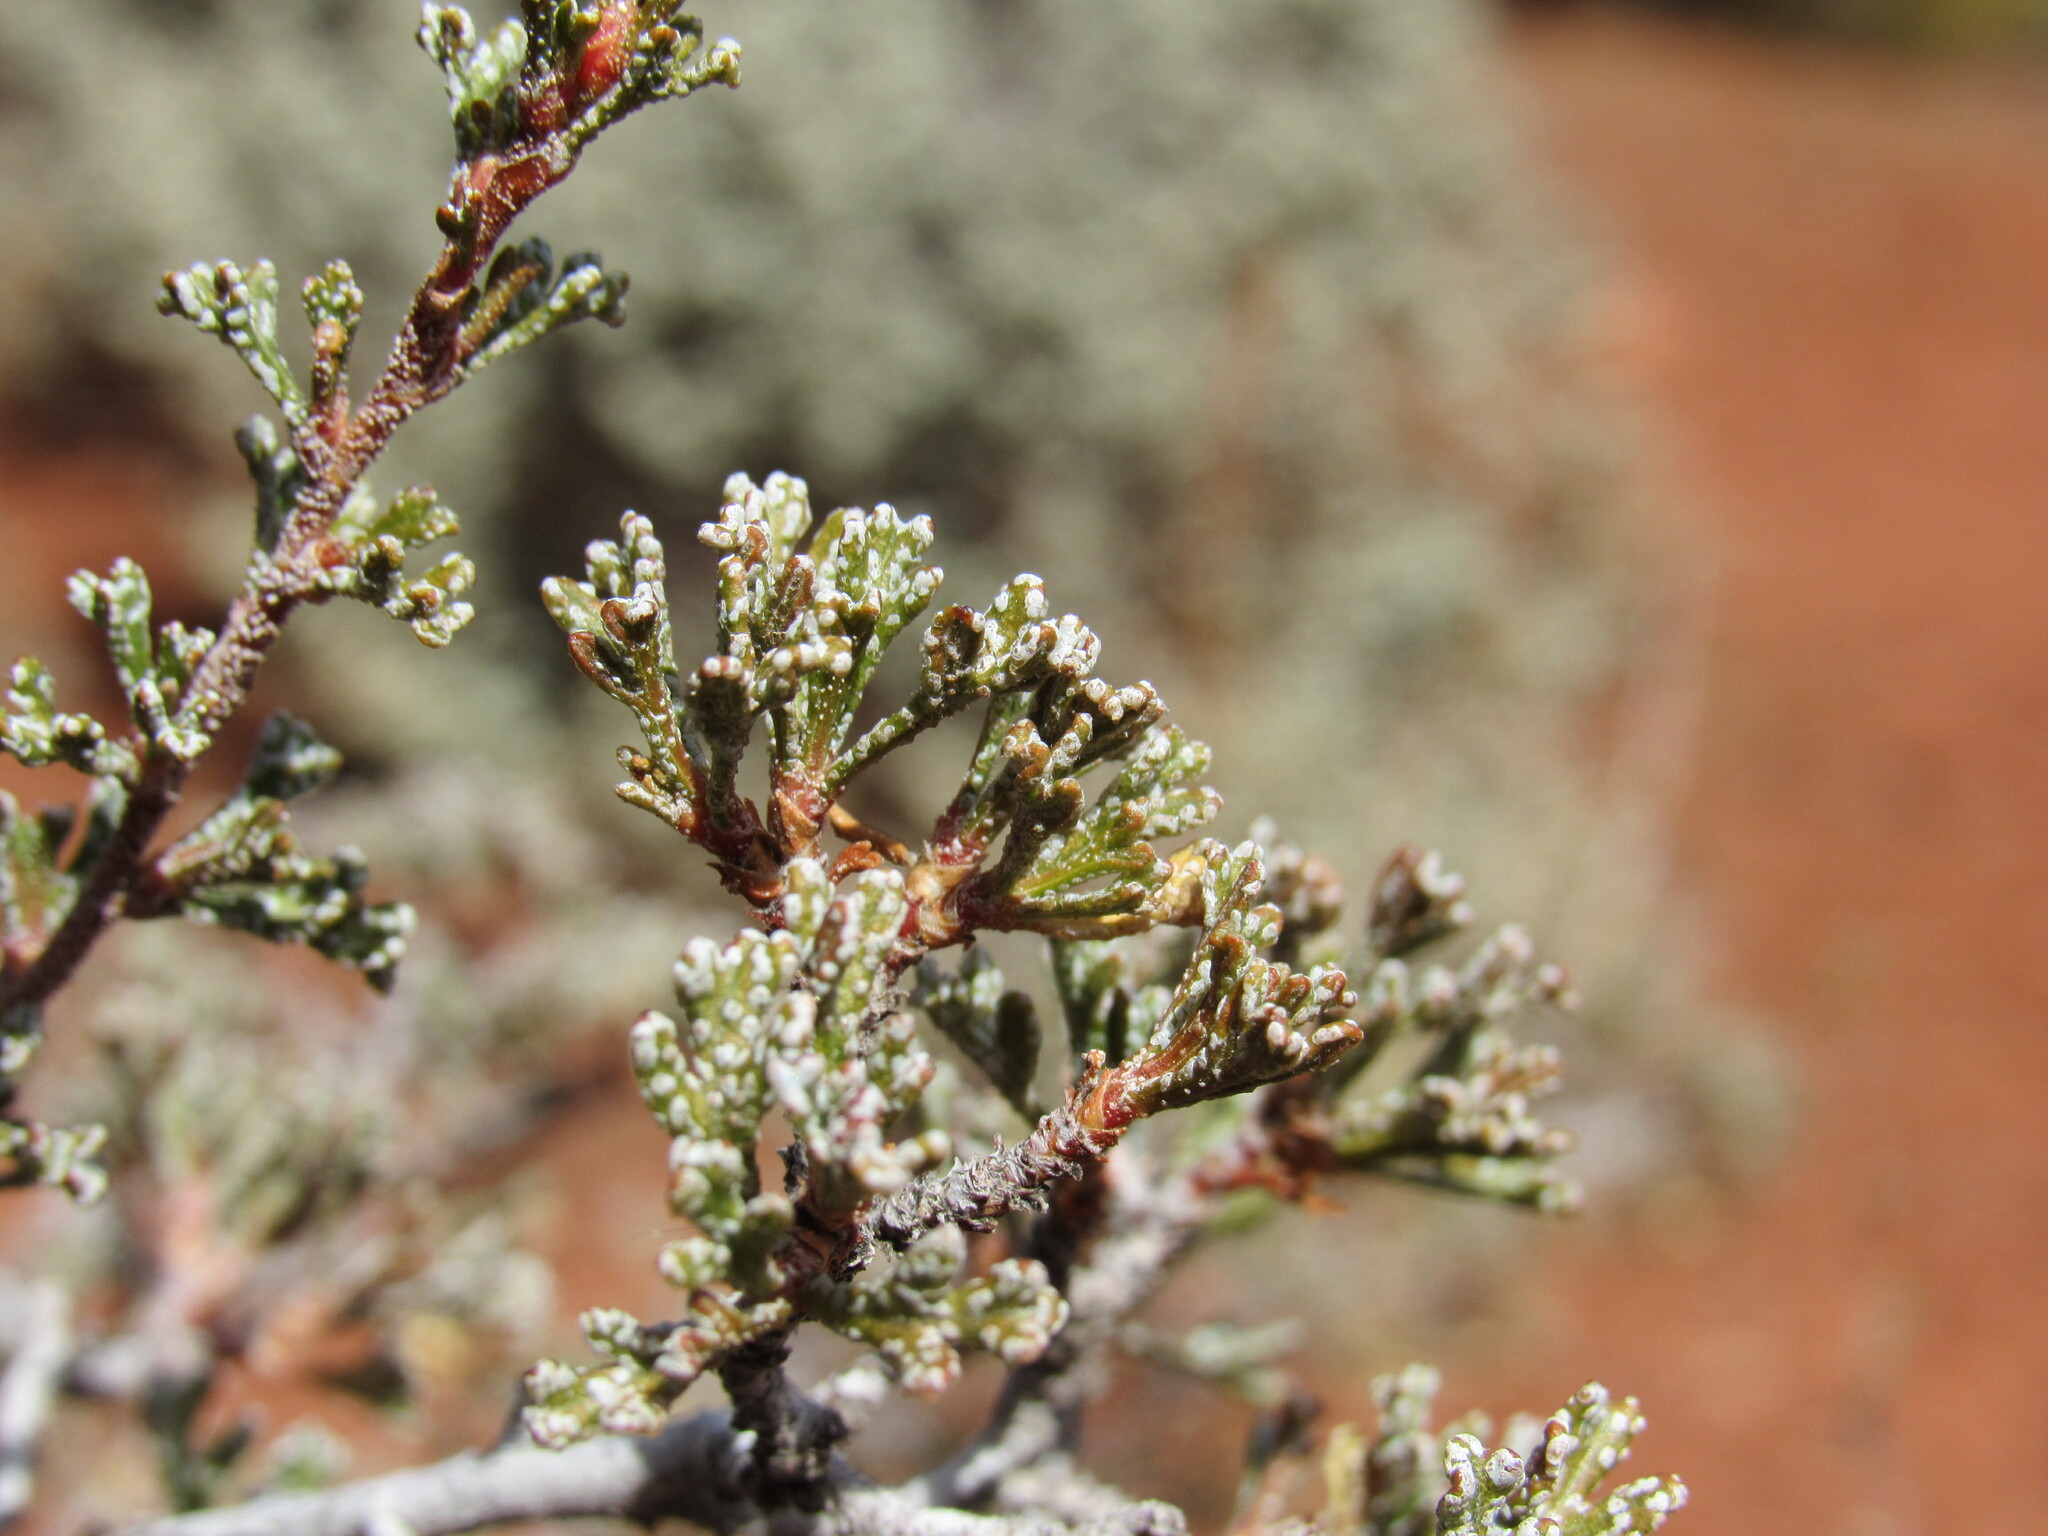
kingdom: Plantae
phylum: Tracheophyta
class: Magnoliopsida
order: Rosales
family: Rosaceae
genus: Purshia
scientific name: Purshia stansburiana
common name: Stansbury's cliffrose
